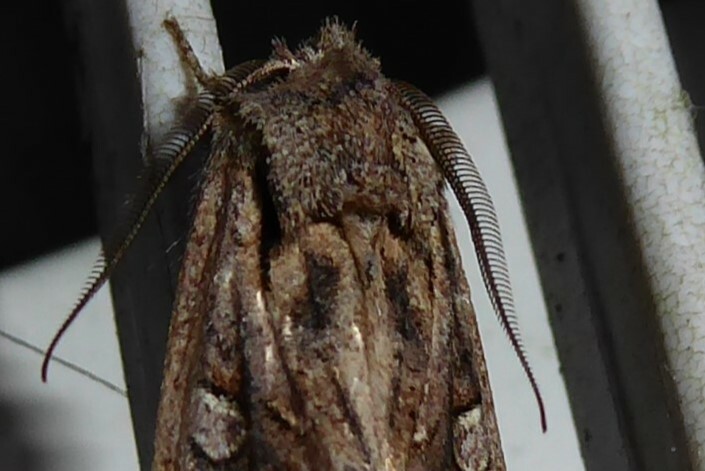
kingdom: Animalia
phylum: Arthropoda
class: Insecta
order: Lepidoptera
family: Noctuidae
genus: Ichneutica
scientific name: Ichneutica
